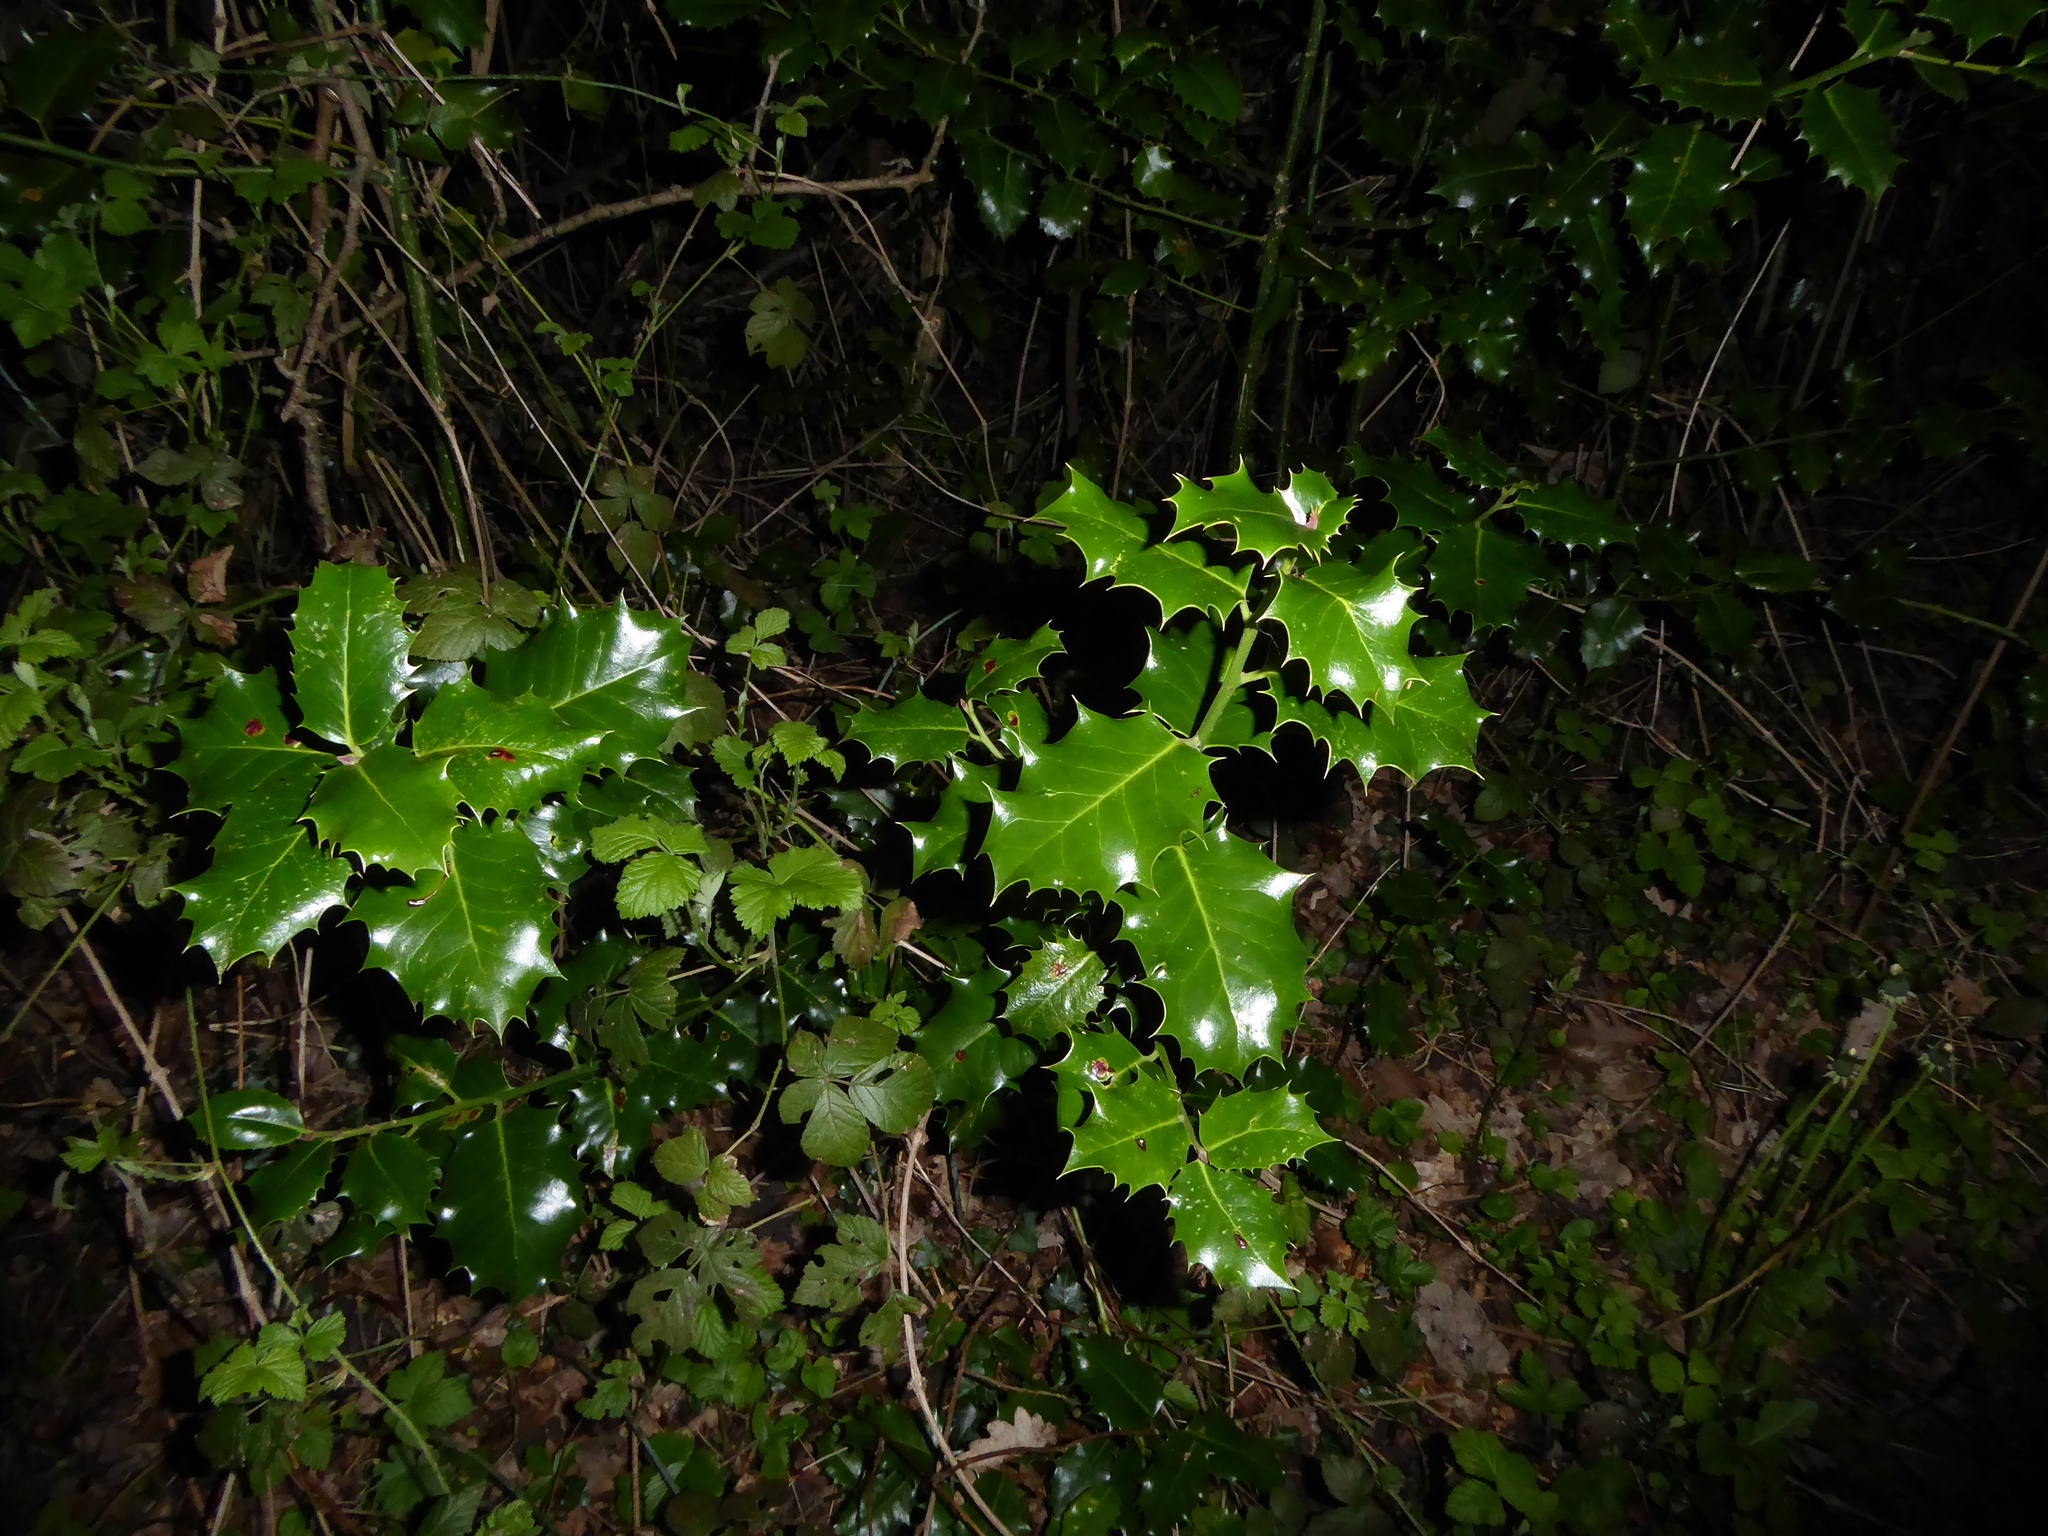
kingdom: Plantae
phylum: Tracheophyta
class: Magnoliopsida
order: Aquifoliales
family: Aquifoliaceae
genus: Ilex
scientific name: Ilex aquifolium
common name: English holly
